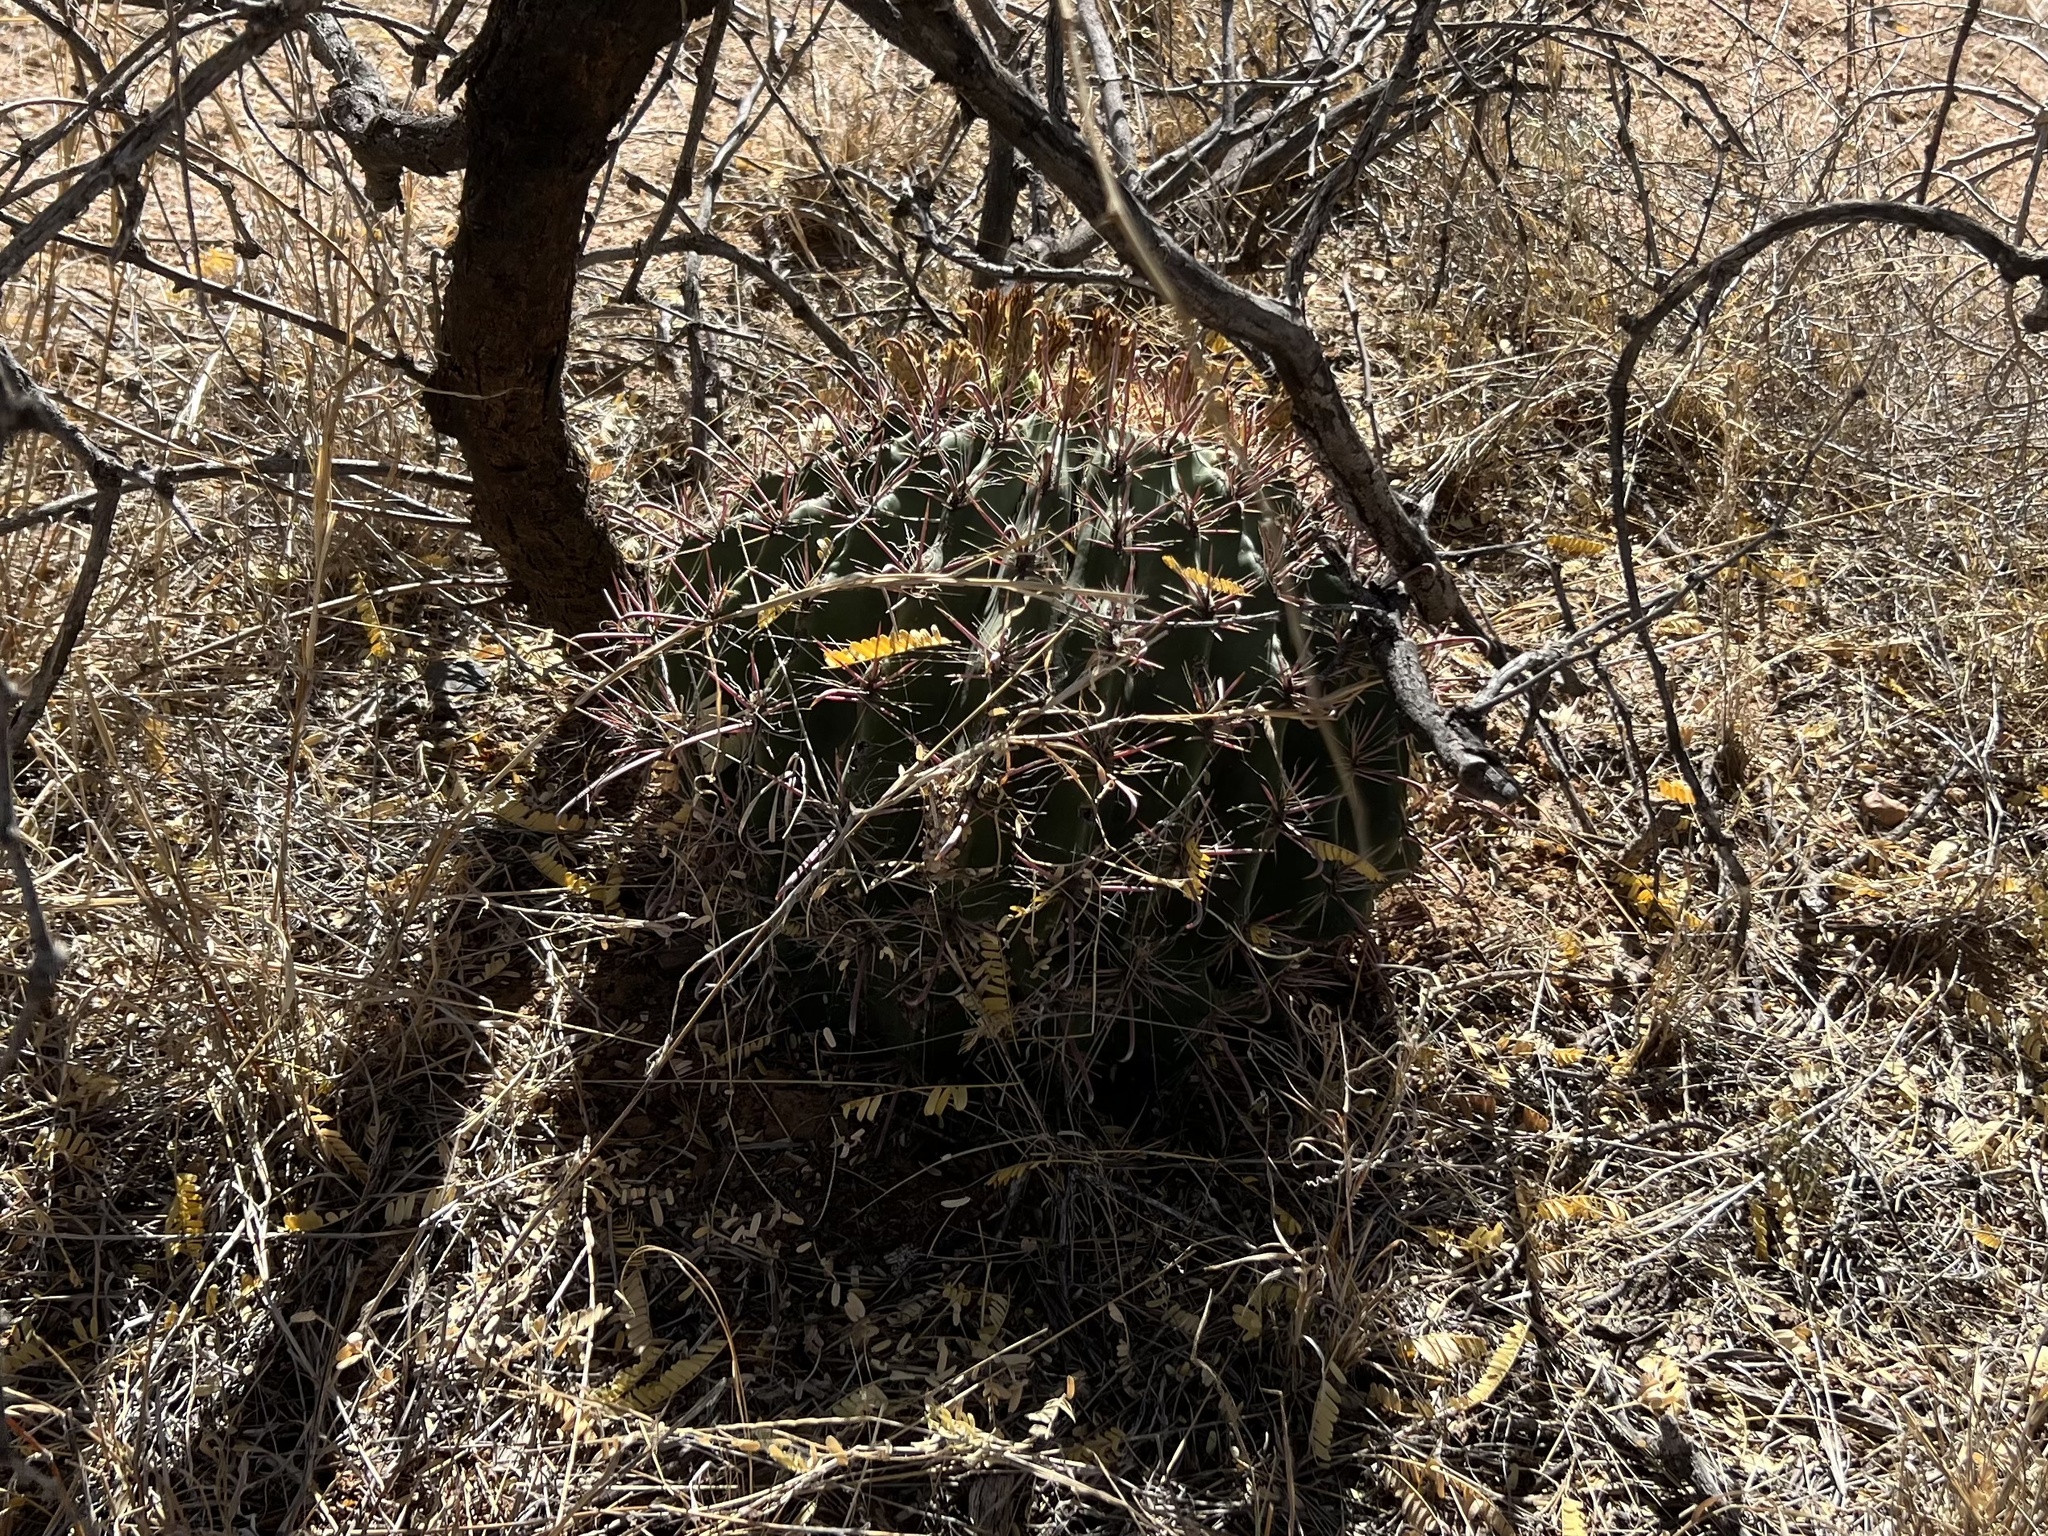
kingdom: Plantae
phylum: Tracheophyta
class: Magnoliopsida
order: Caryophyllales
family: Cactaceae
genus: Ferocactus
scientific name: Ferocactus wislizeni
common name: Candy barrel cactus
